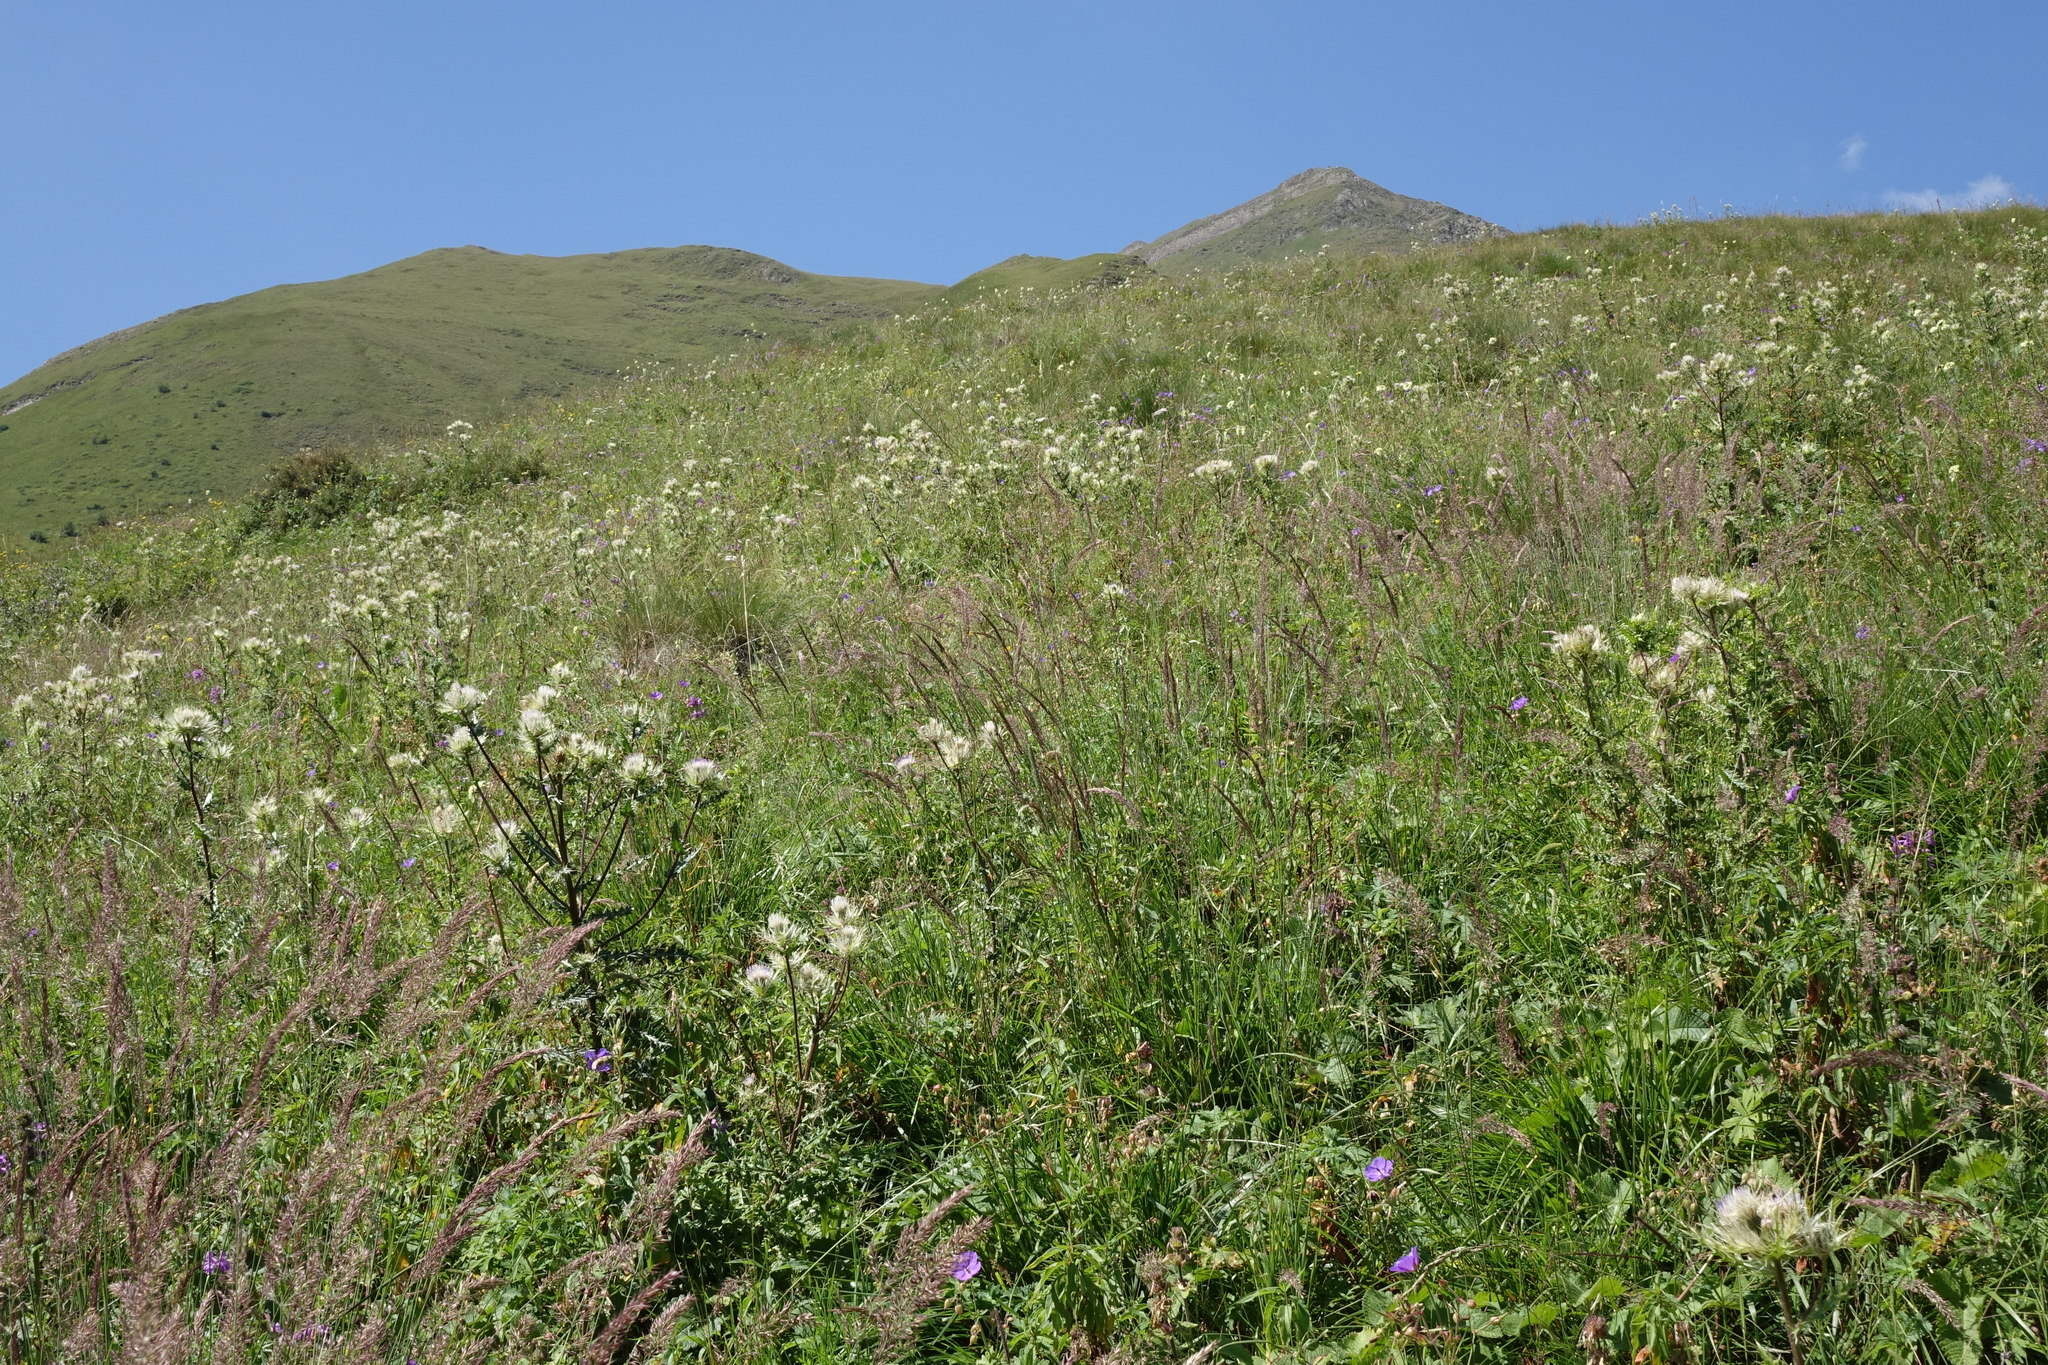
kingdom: Plantae
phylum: Tracheophyta
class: Magnoliopsida
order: Asterales
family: Asteraceae
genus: Cirsium
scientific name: Cirsium obvallatum
